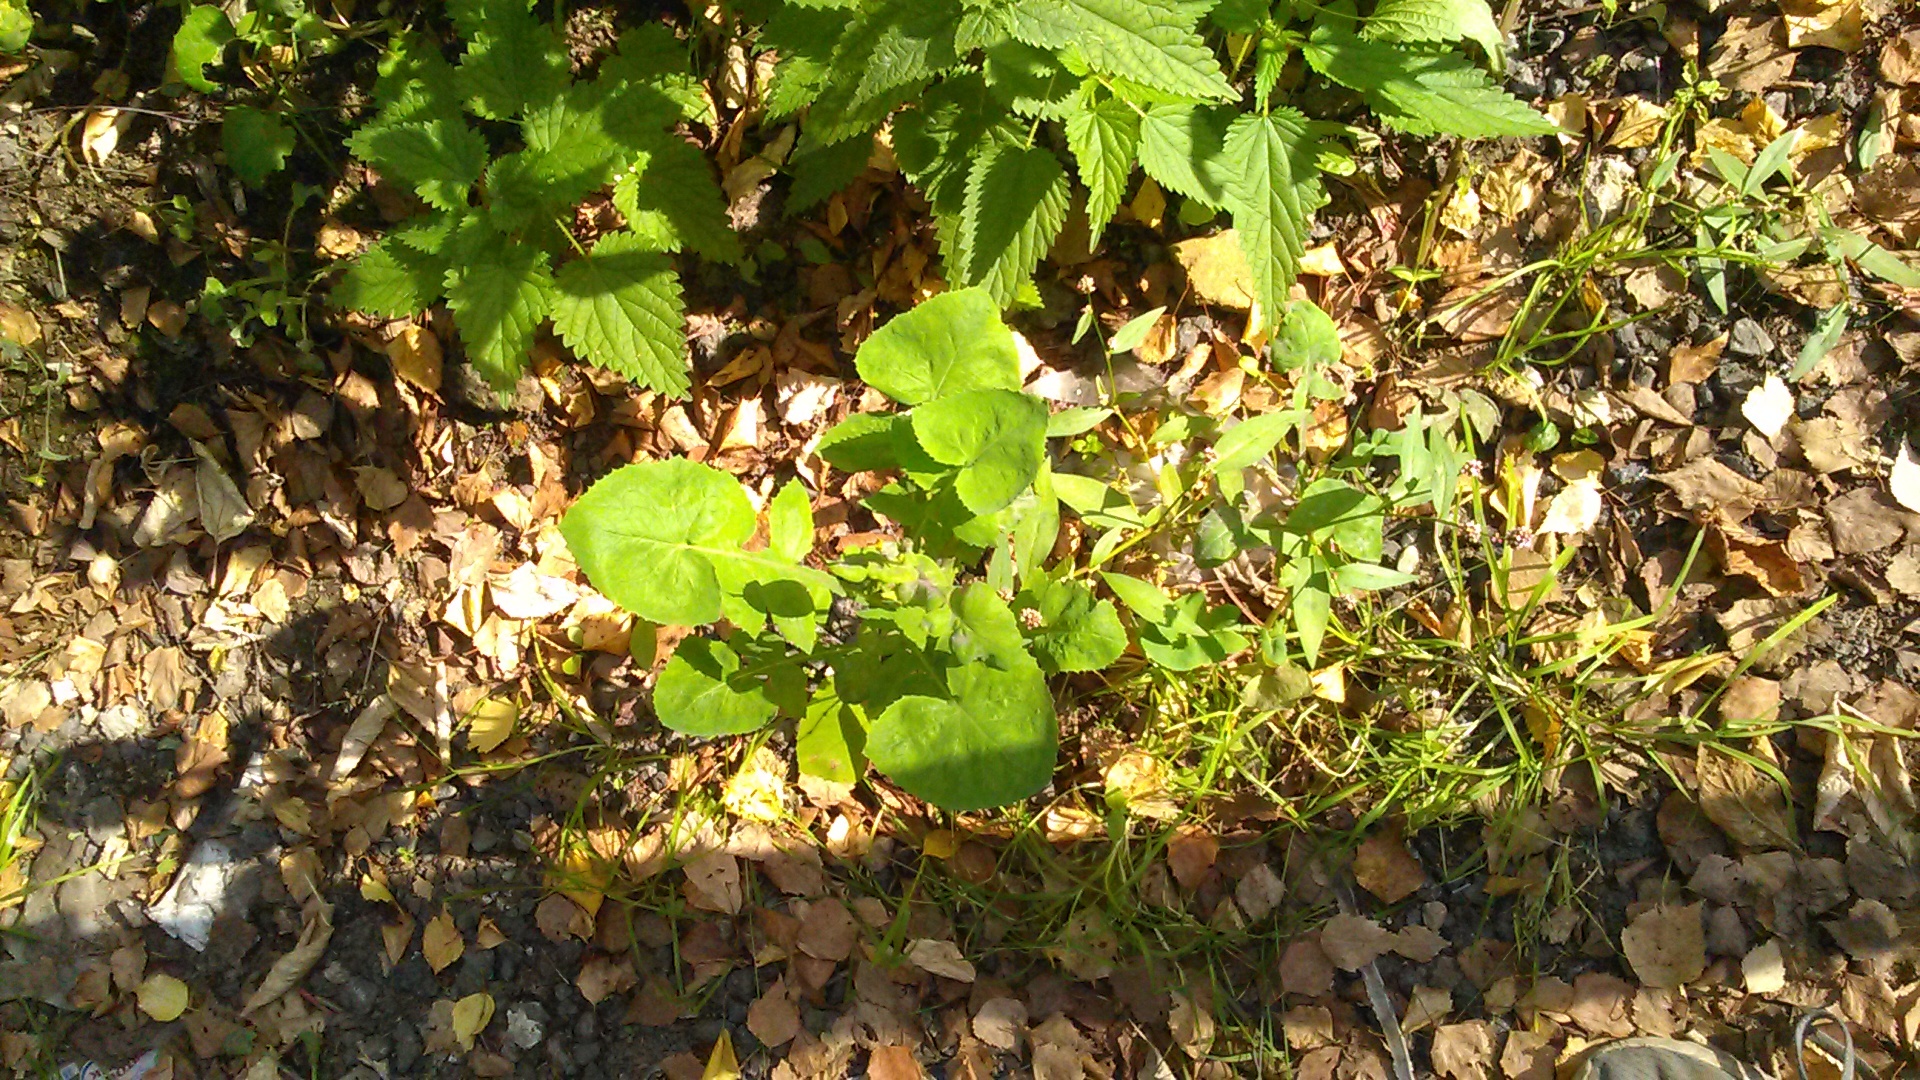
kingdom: Plantae
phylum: Tracheophyta
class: Magnoliopsida
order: Asterales
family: Asteraceae
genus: Sonchus
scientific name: Sonchus oleraceus
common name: Common sowthistle
